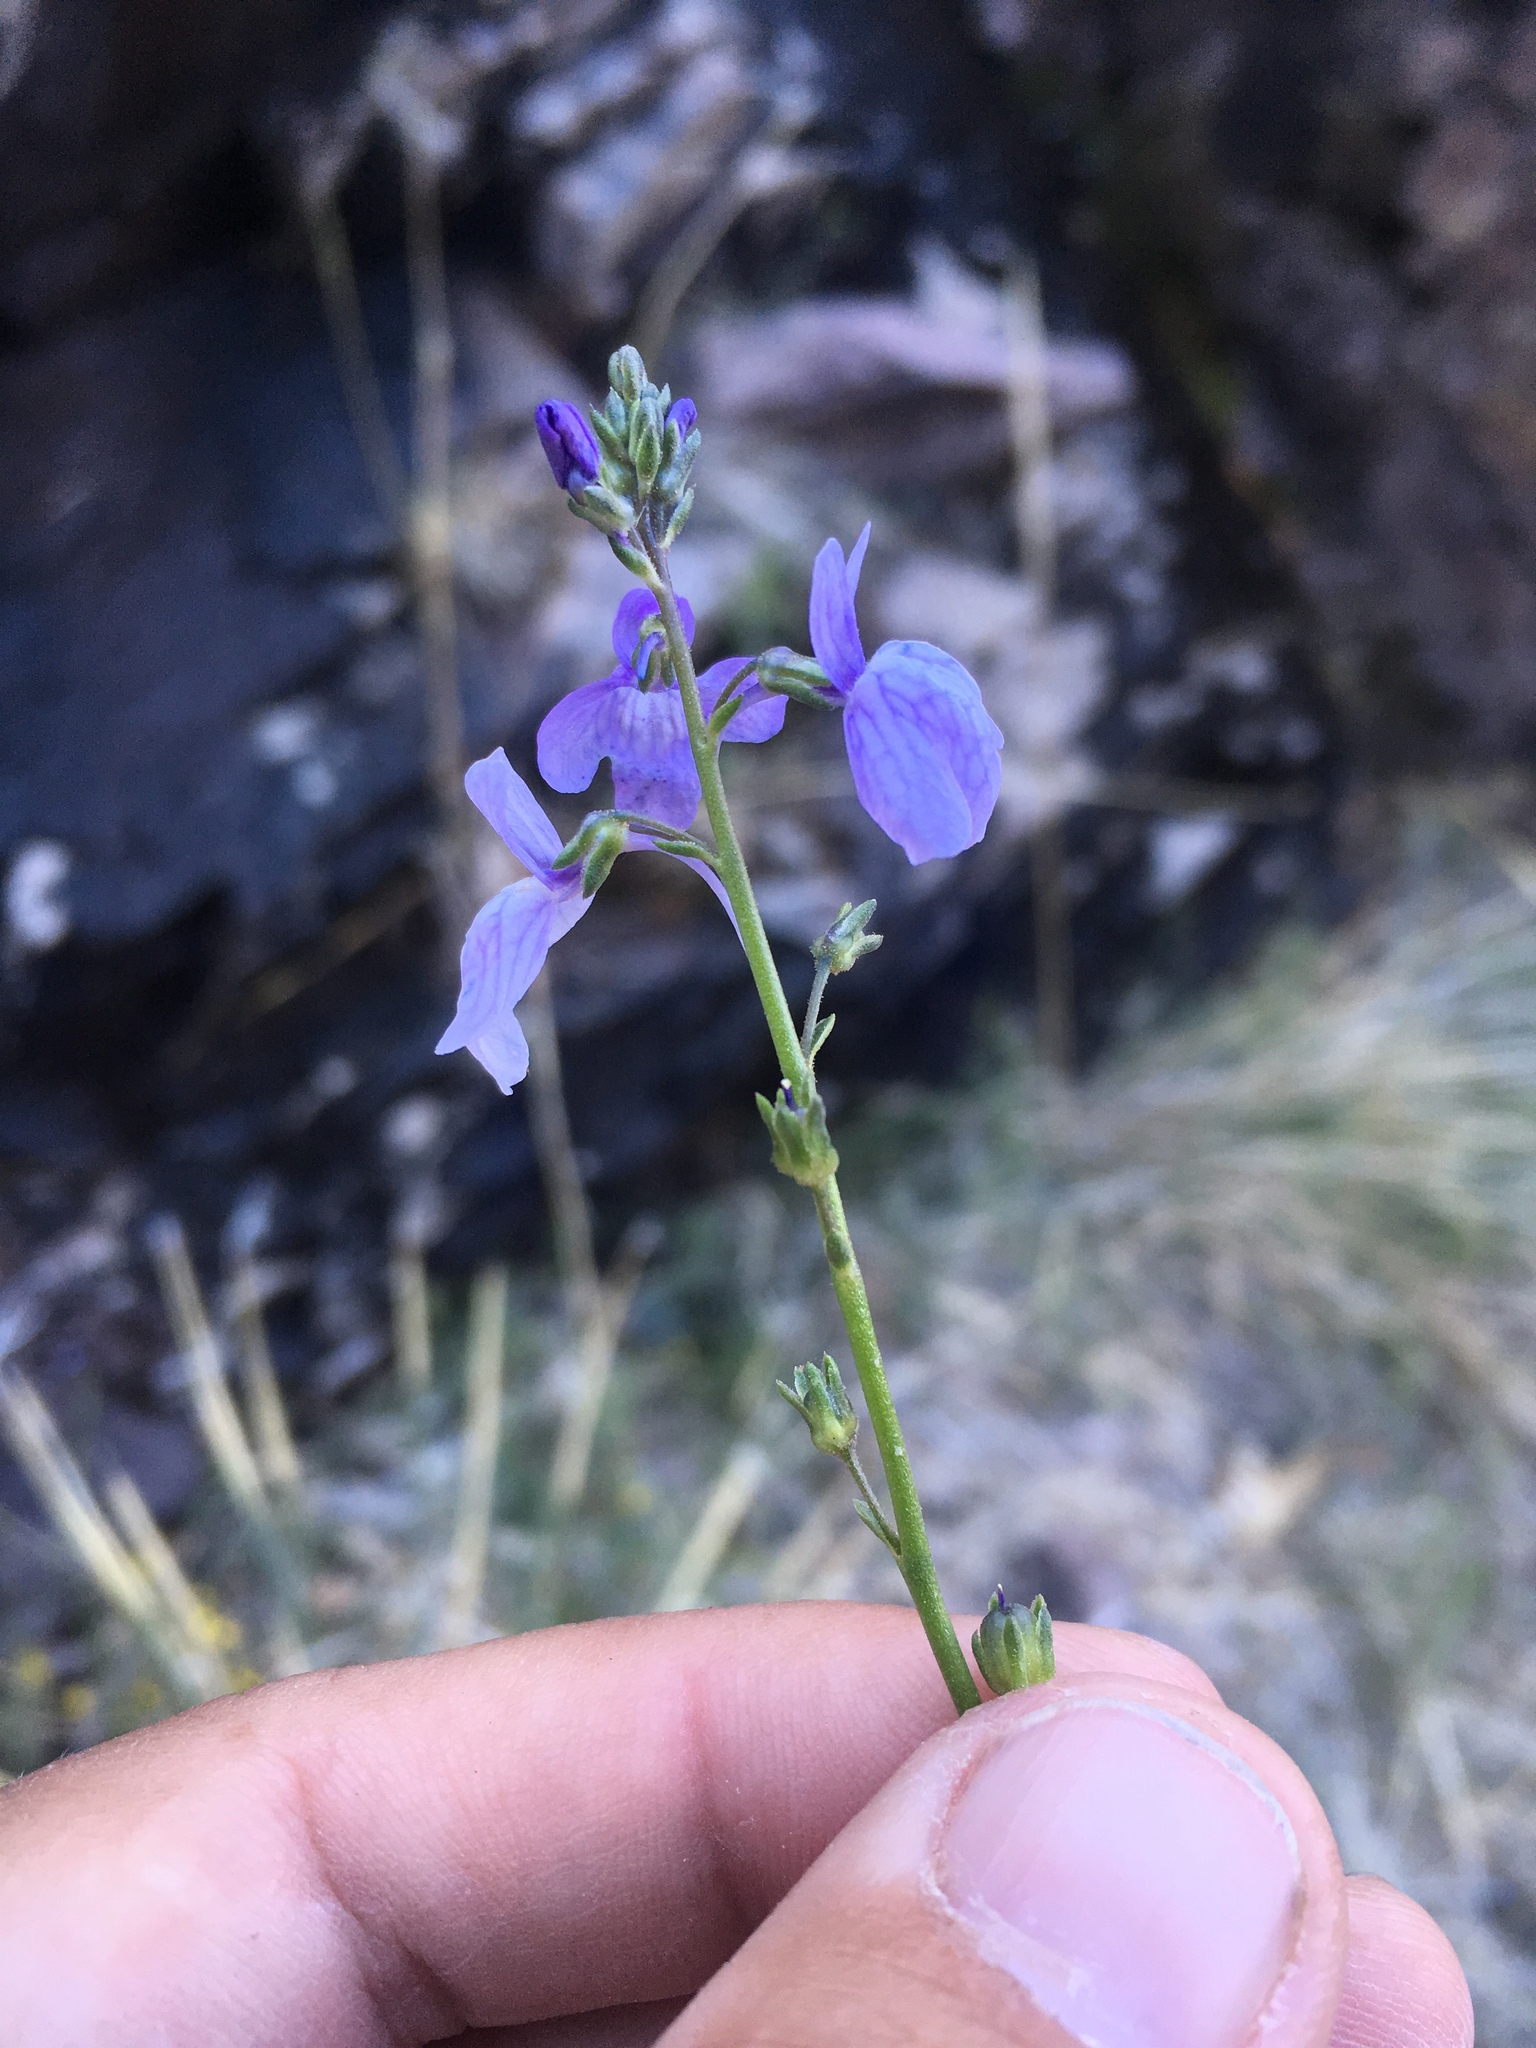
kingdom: Plantae
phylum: Tracheophyta
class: Magnoliopsida
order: Lamiales
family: Plantaginaceae
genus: Nuttallanthus
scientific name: Nuttallanthus texanus
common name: Texas toadflax
